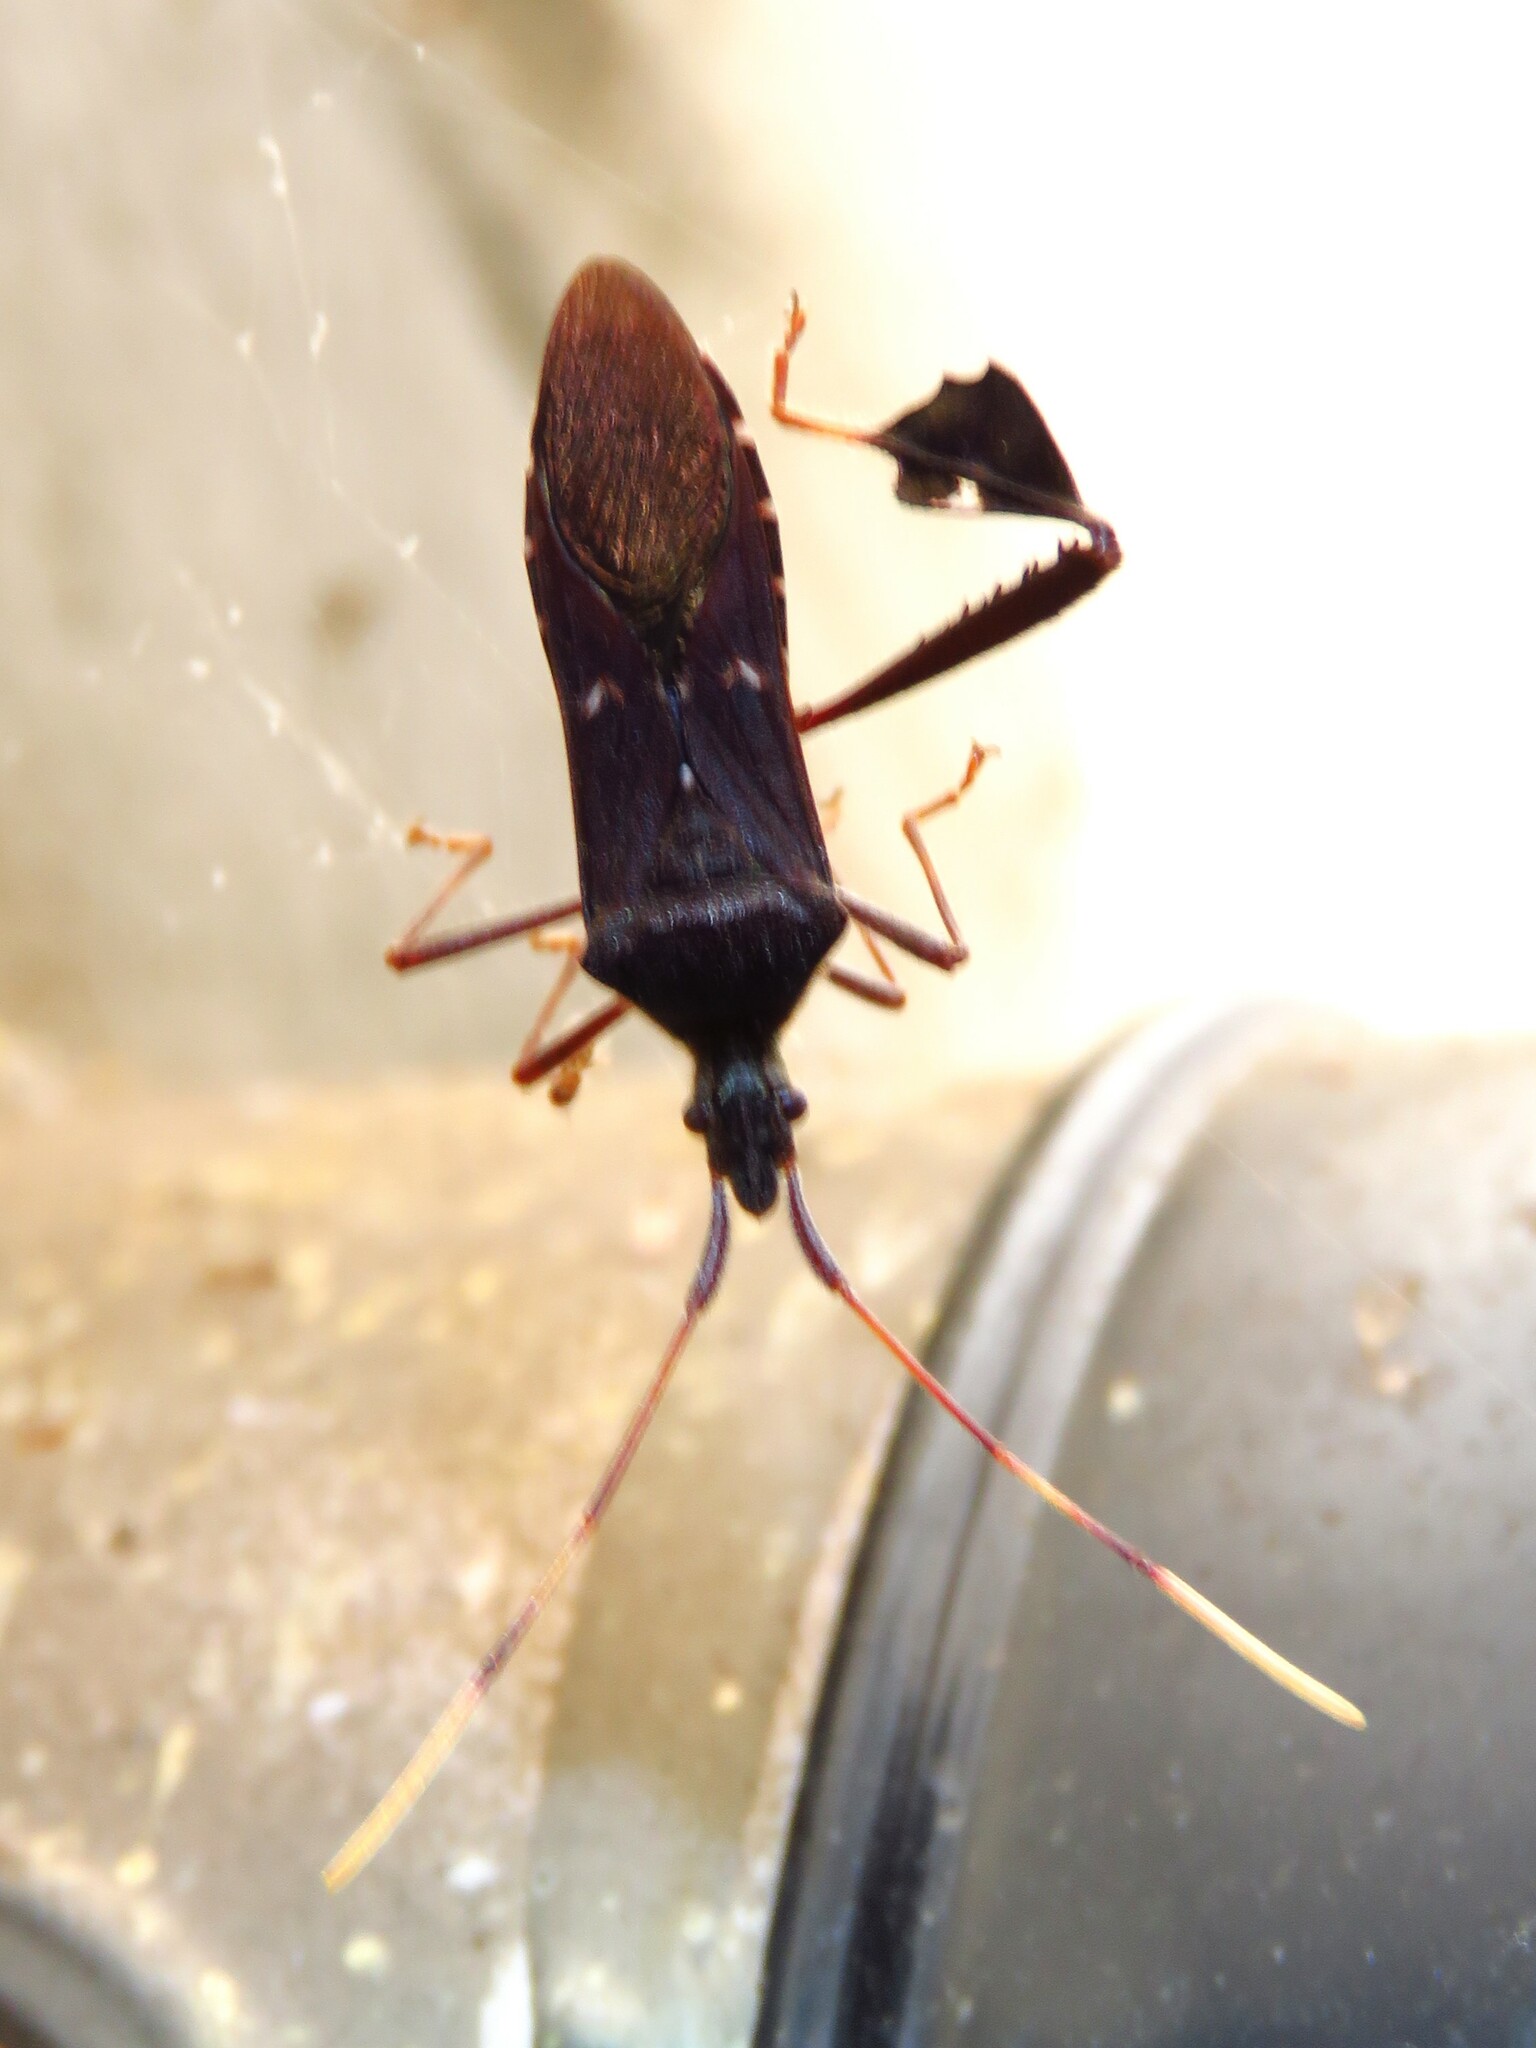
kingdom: Animalia
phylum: Arthropoda
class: Insecta
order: Hemiptera
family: Coreidae
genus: Leptoglossus
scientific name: Leptoglossus oppositus
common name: Northern leaf-footed bug
